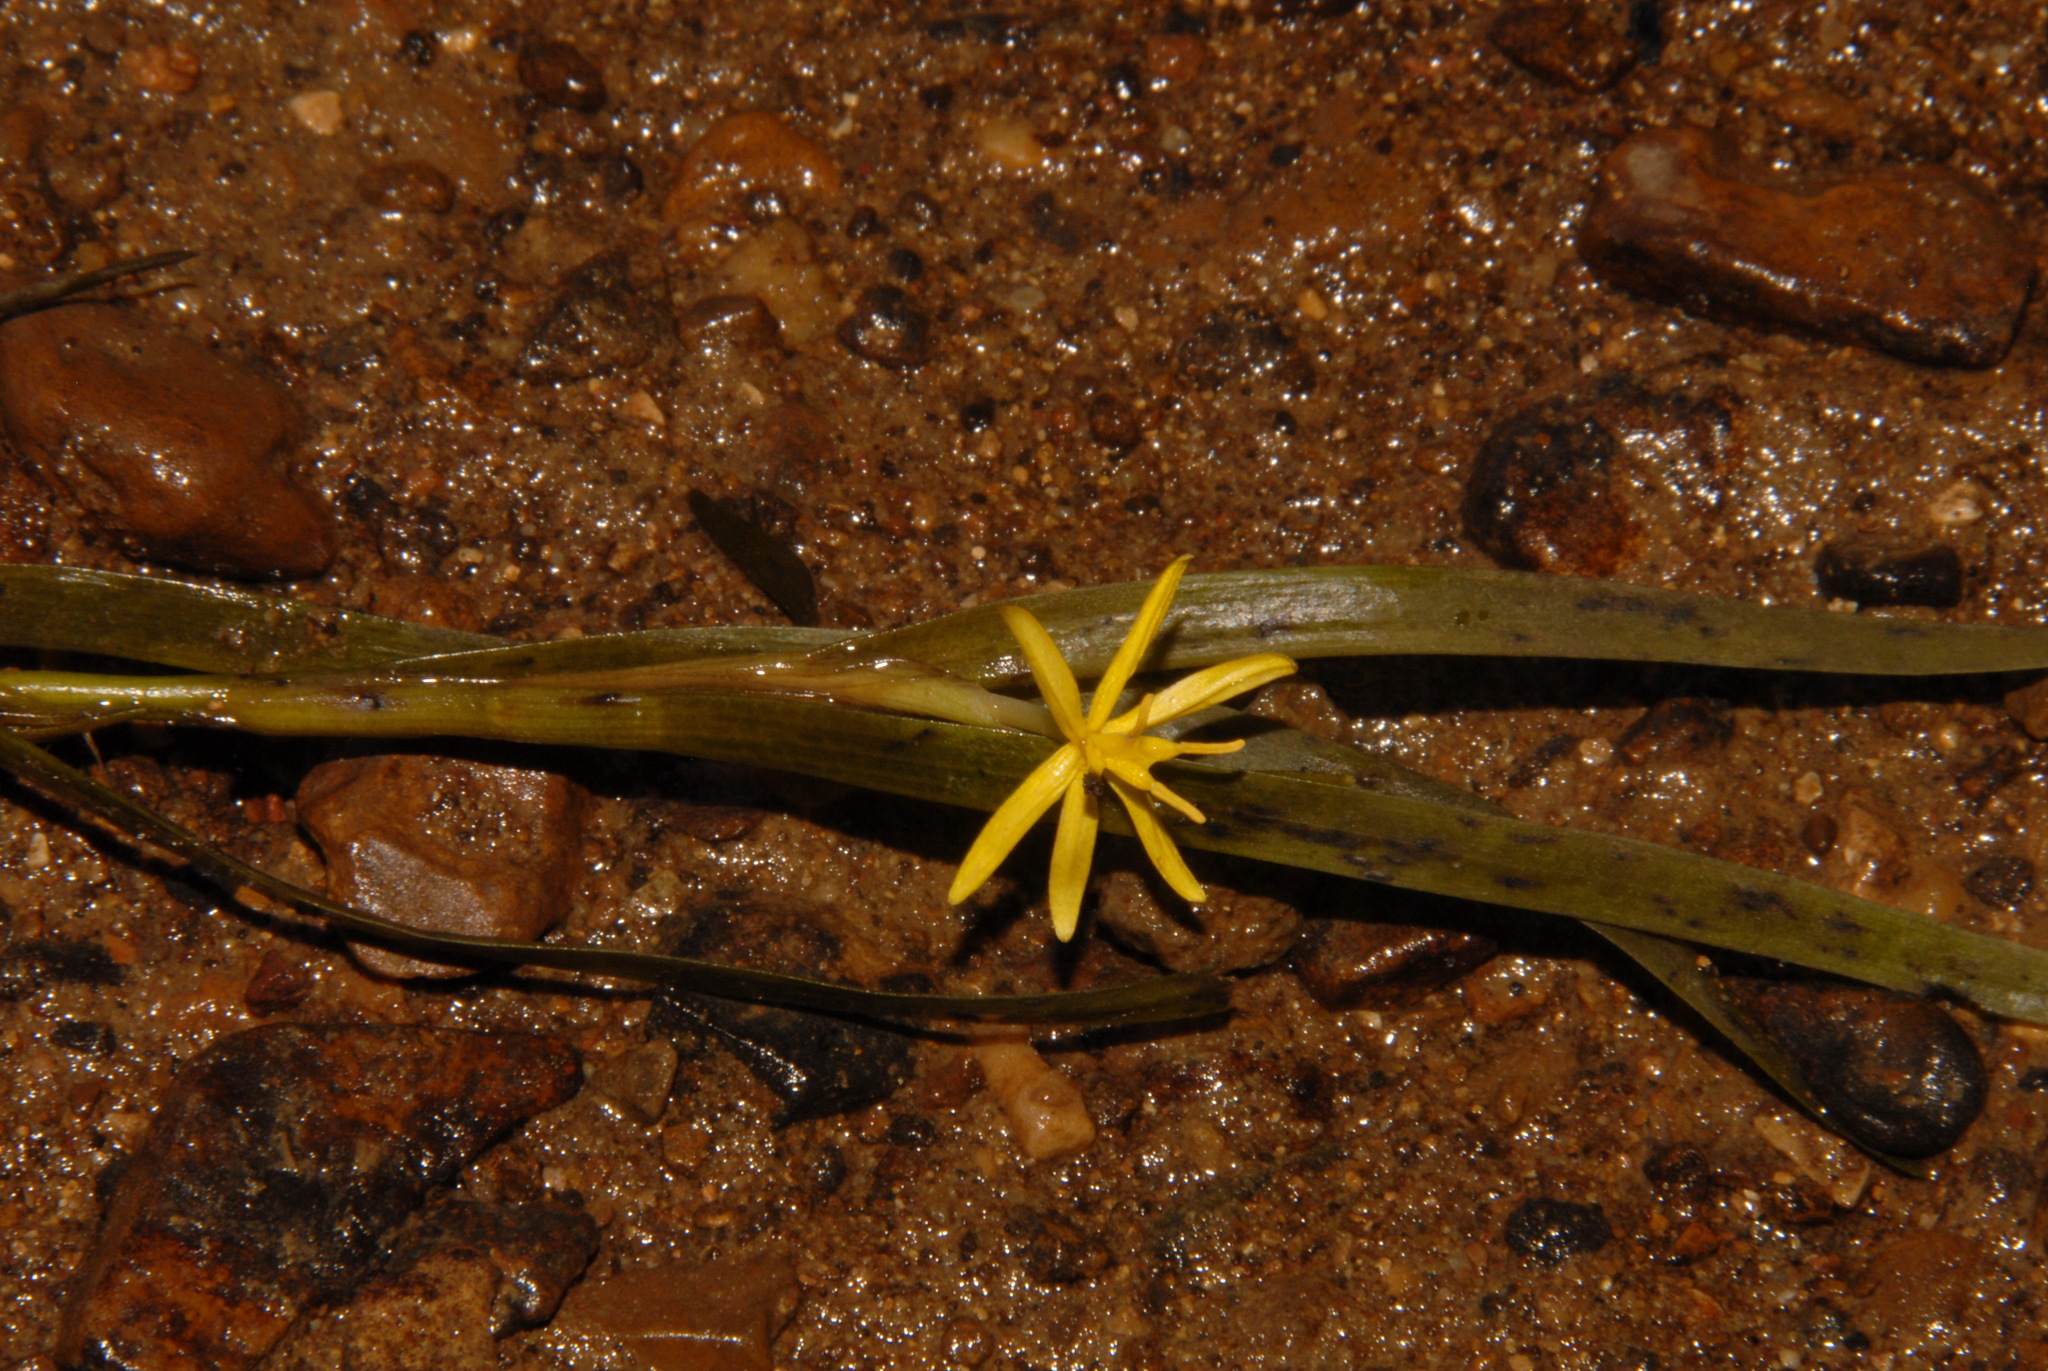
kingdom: Plantae
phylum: Tracheophyta
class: Liliopsida
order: Commelinales
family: Pontederiaceae
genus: Heteranthera
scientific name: Heteranthera dubia
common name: Grass-leaved mud plantain
